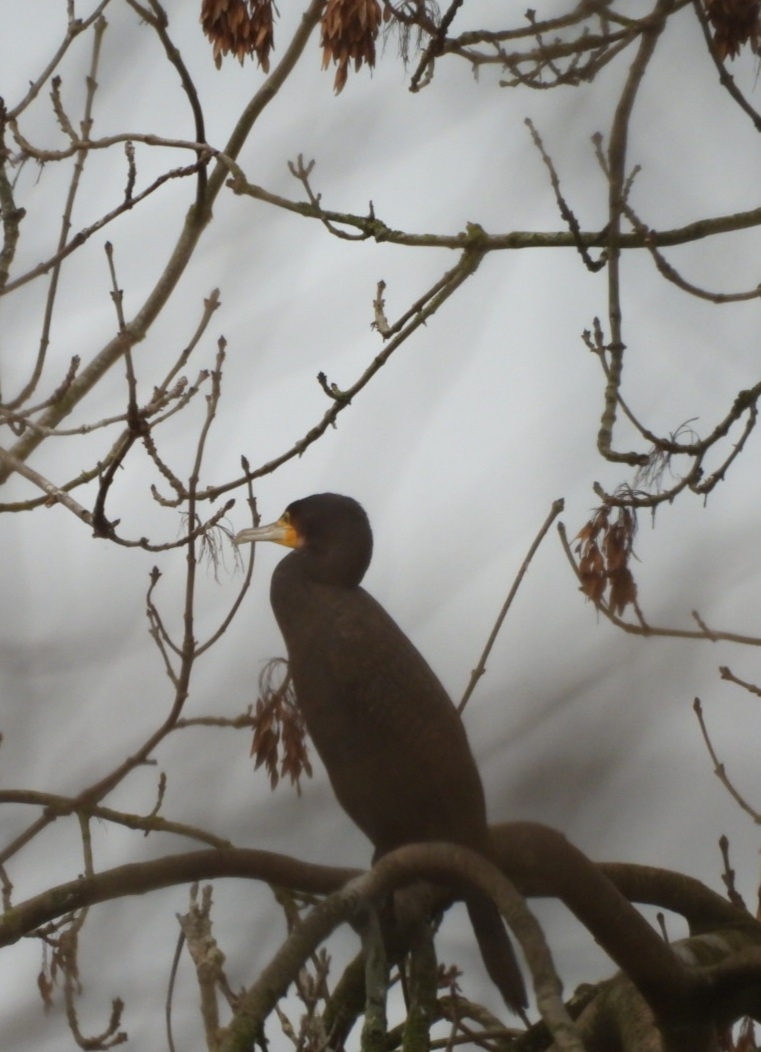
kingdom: Animalia
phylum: Chordata
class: Aves
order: Suliformes
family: Phalacrocoracidae
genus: Phalacrocorax
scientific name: Phalacrocorax carbo
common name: Great cormorant
